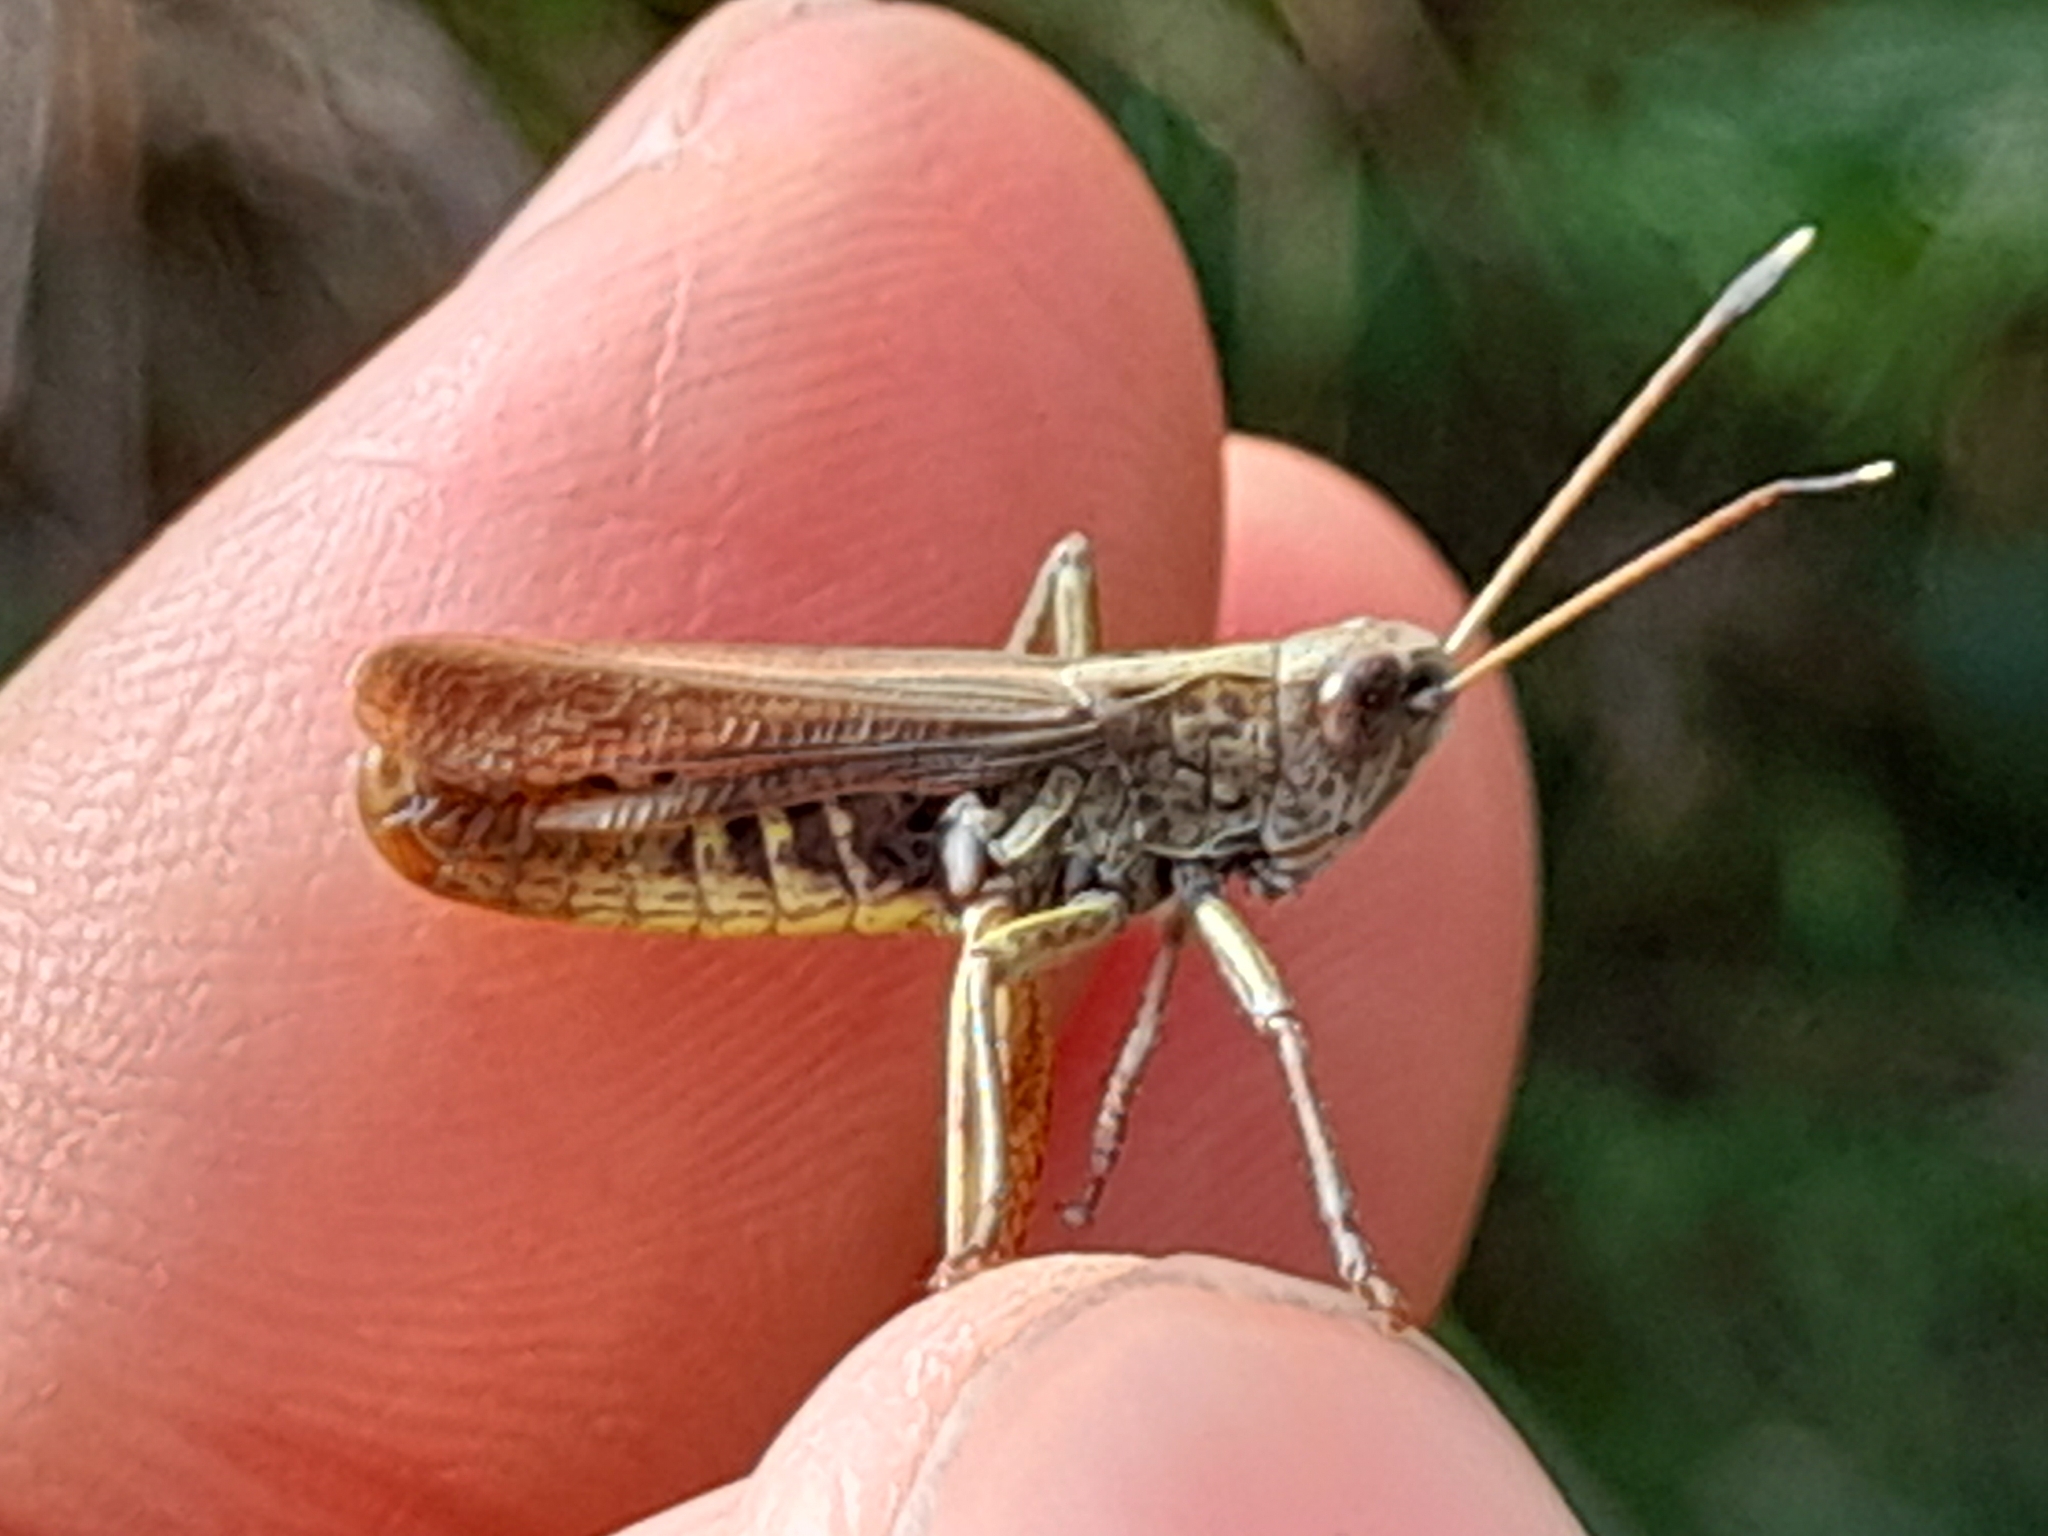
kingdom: Animalia
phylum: Arthropoda
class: Insecta
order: Orthoptera
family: Acrididae
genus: Gomphocerippus
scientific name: Gomphocerippus rufus
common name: Rufous grasshopper
